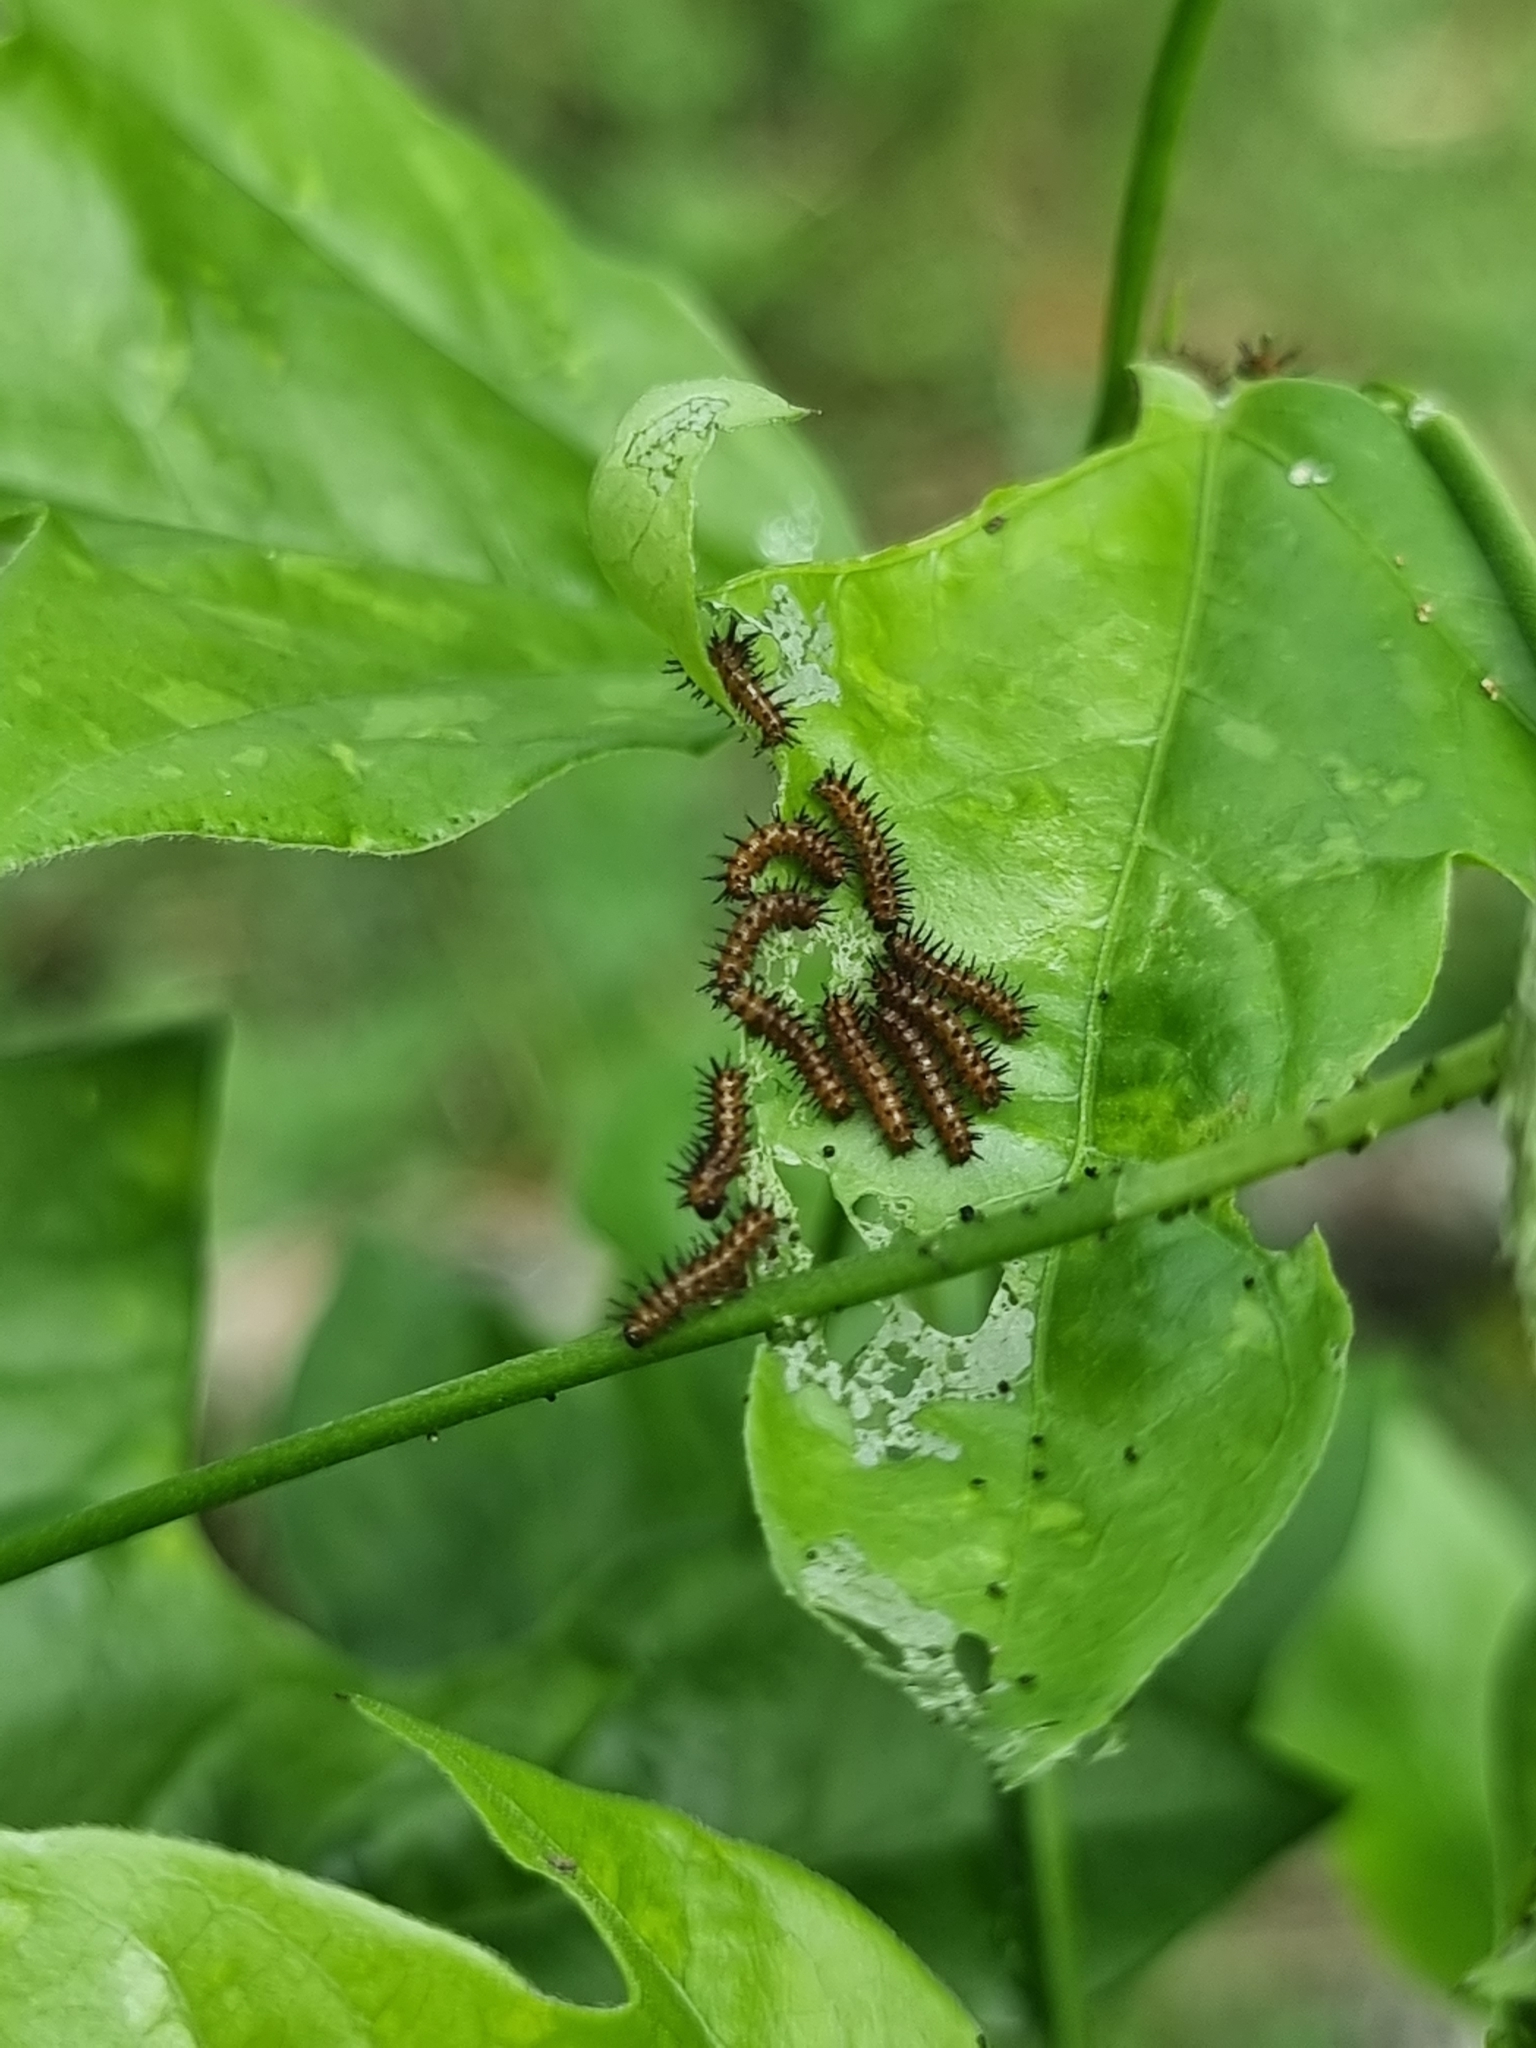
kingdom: Animalia
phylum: Arthropoda
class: Insecta
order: Lepidoptera
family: Nymphalidae
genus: Acraea
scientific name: Acraea terpsicore
